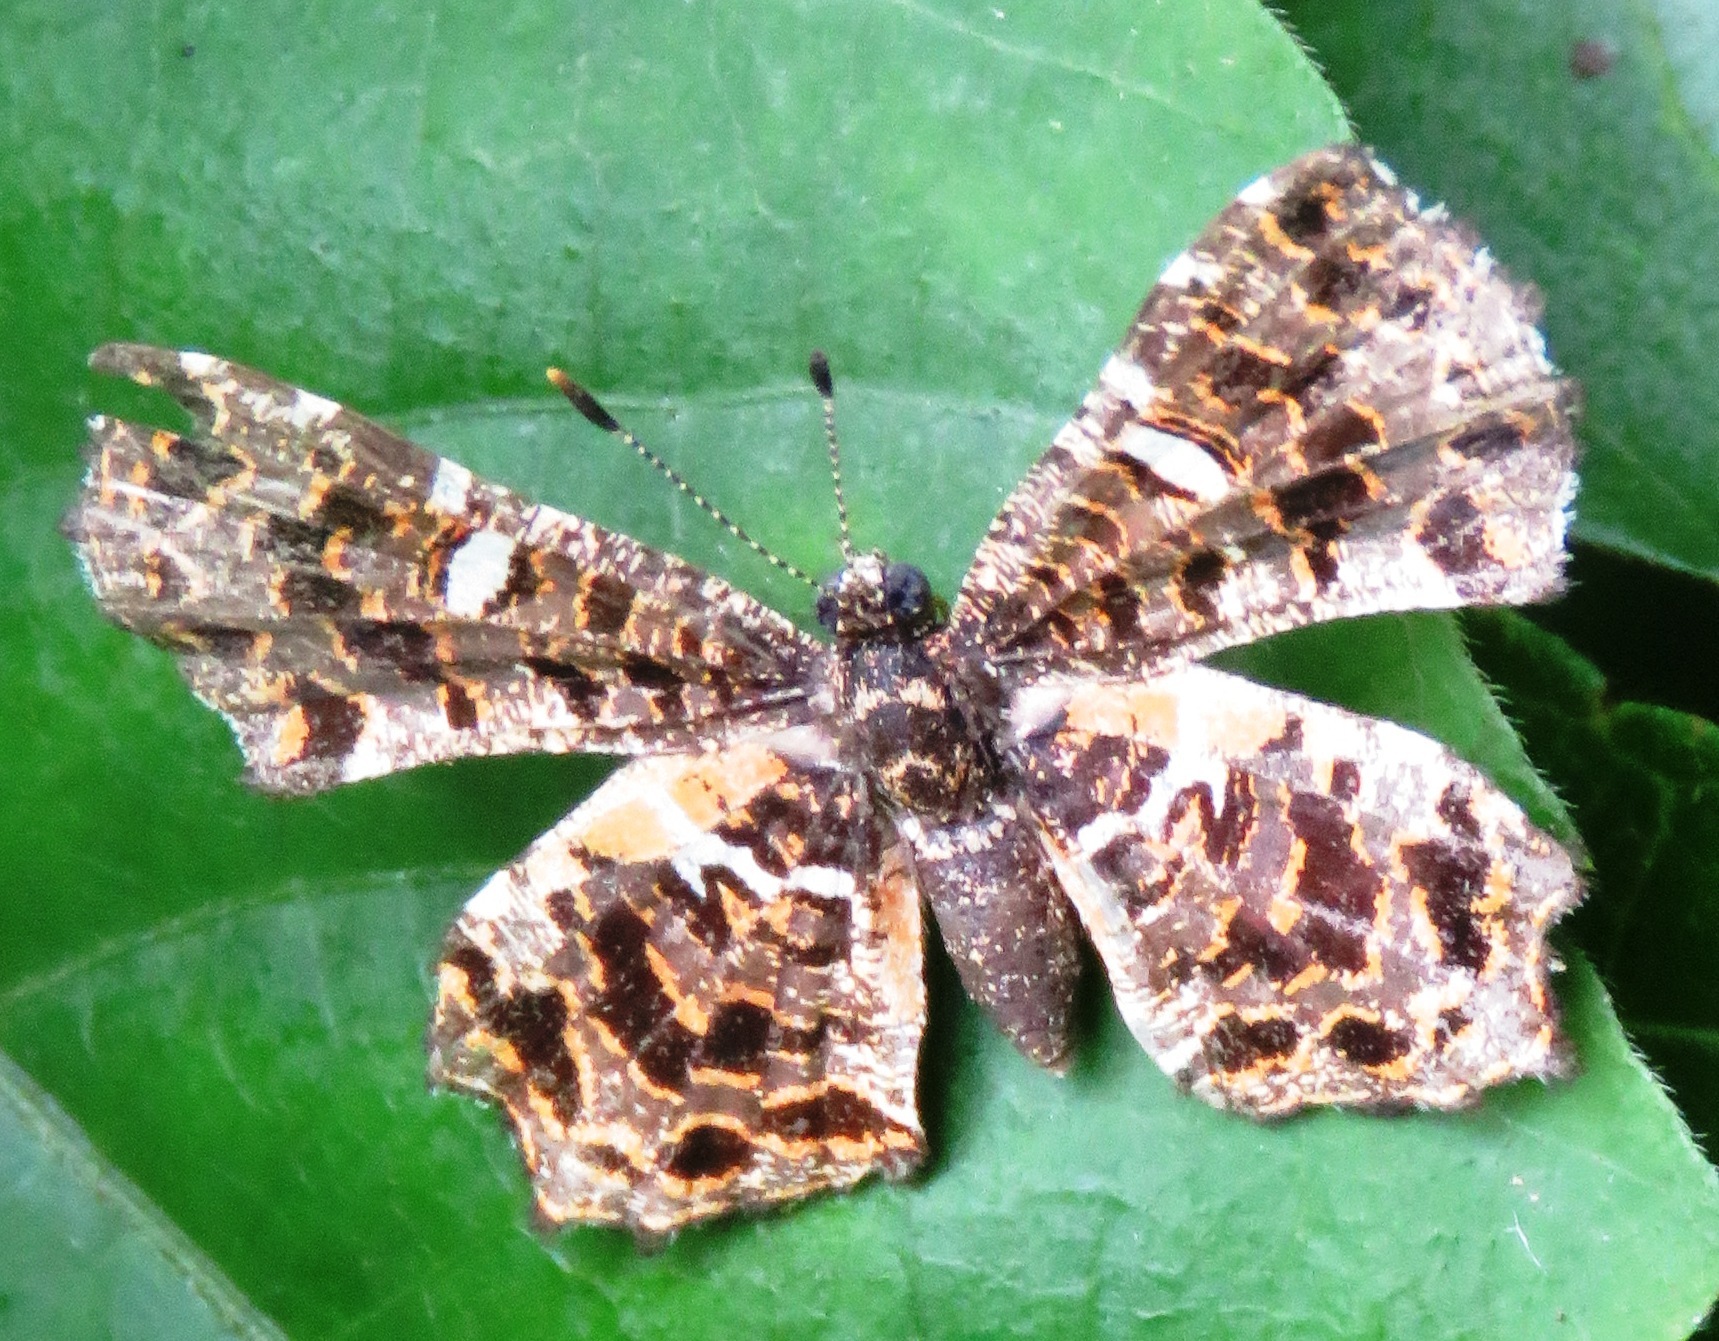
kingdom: Animalia
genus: Calydna
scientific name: Calydna sturnula
